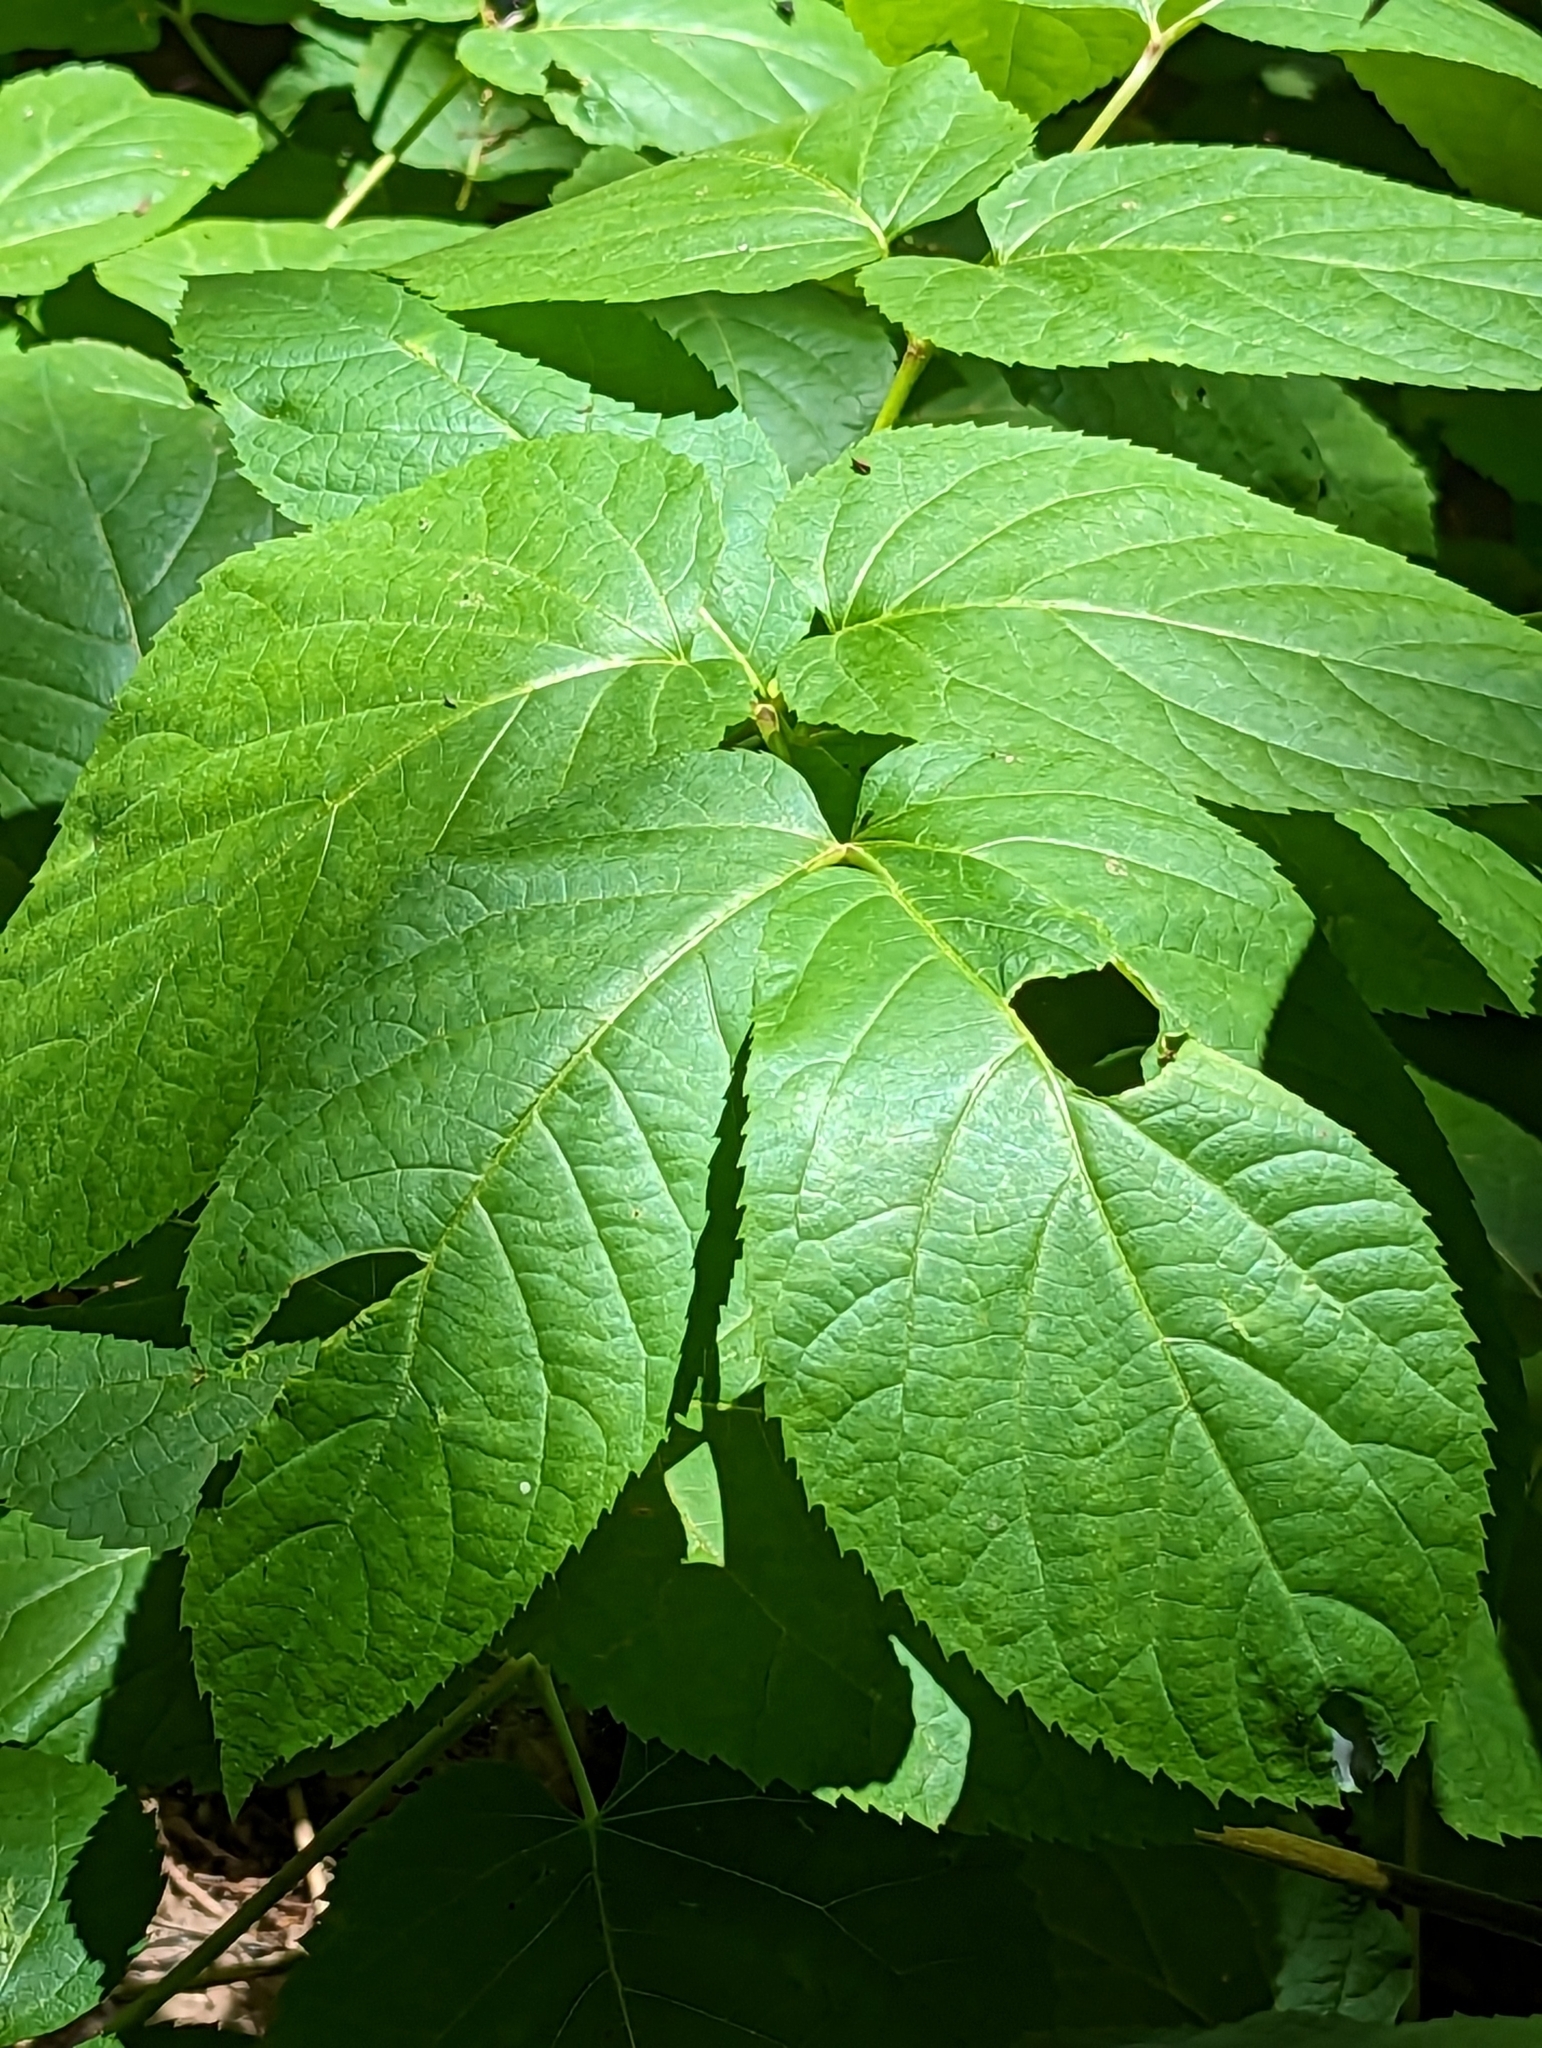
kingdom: Plantae
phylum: Tracheophyta
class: Magnoliopsida
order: Apiales
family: Araliaceae
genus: Aralia
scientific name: Aralia californica
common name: California-ginseng
